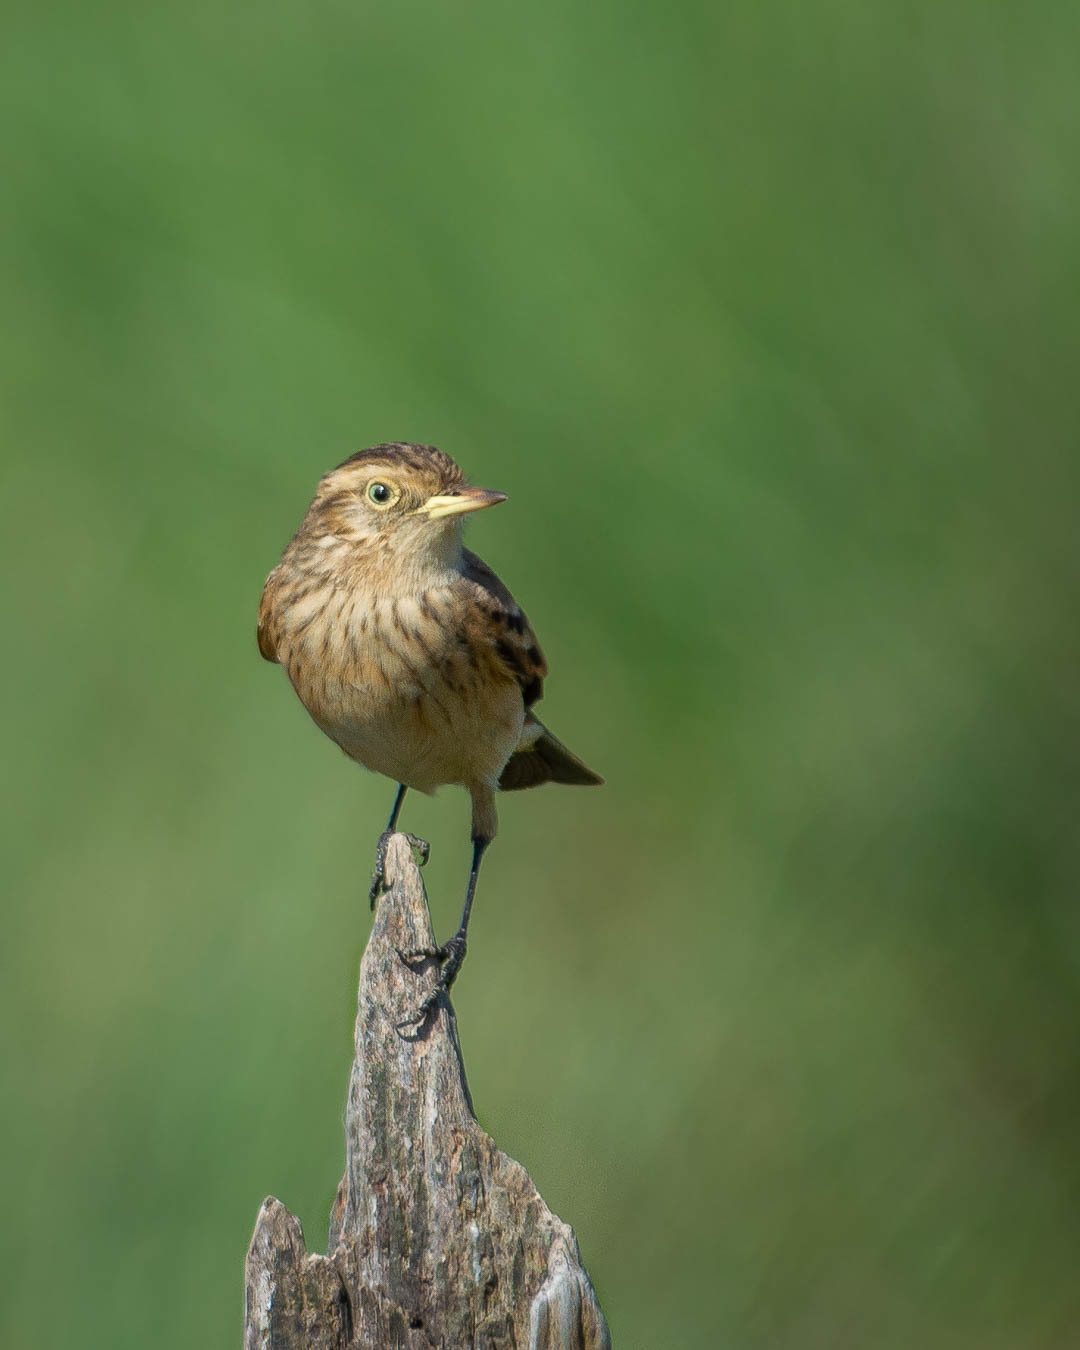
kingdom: Animalia
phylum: Chordata
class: Aves
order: Passeriformes
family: Tyrannidae
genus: Hymenops
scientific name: Hymenops perspicillatus
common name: Spectacled tyrant
